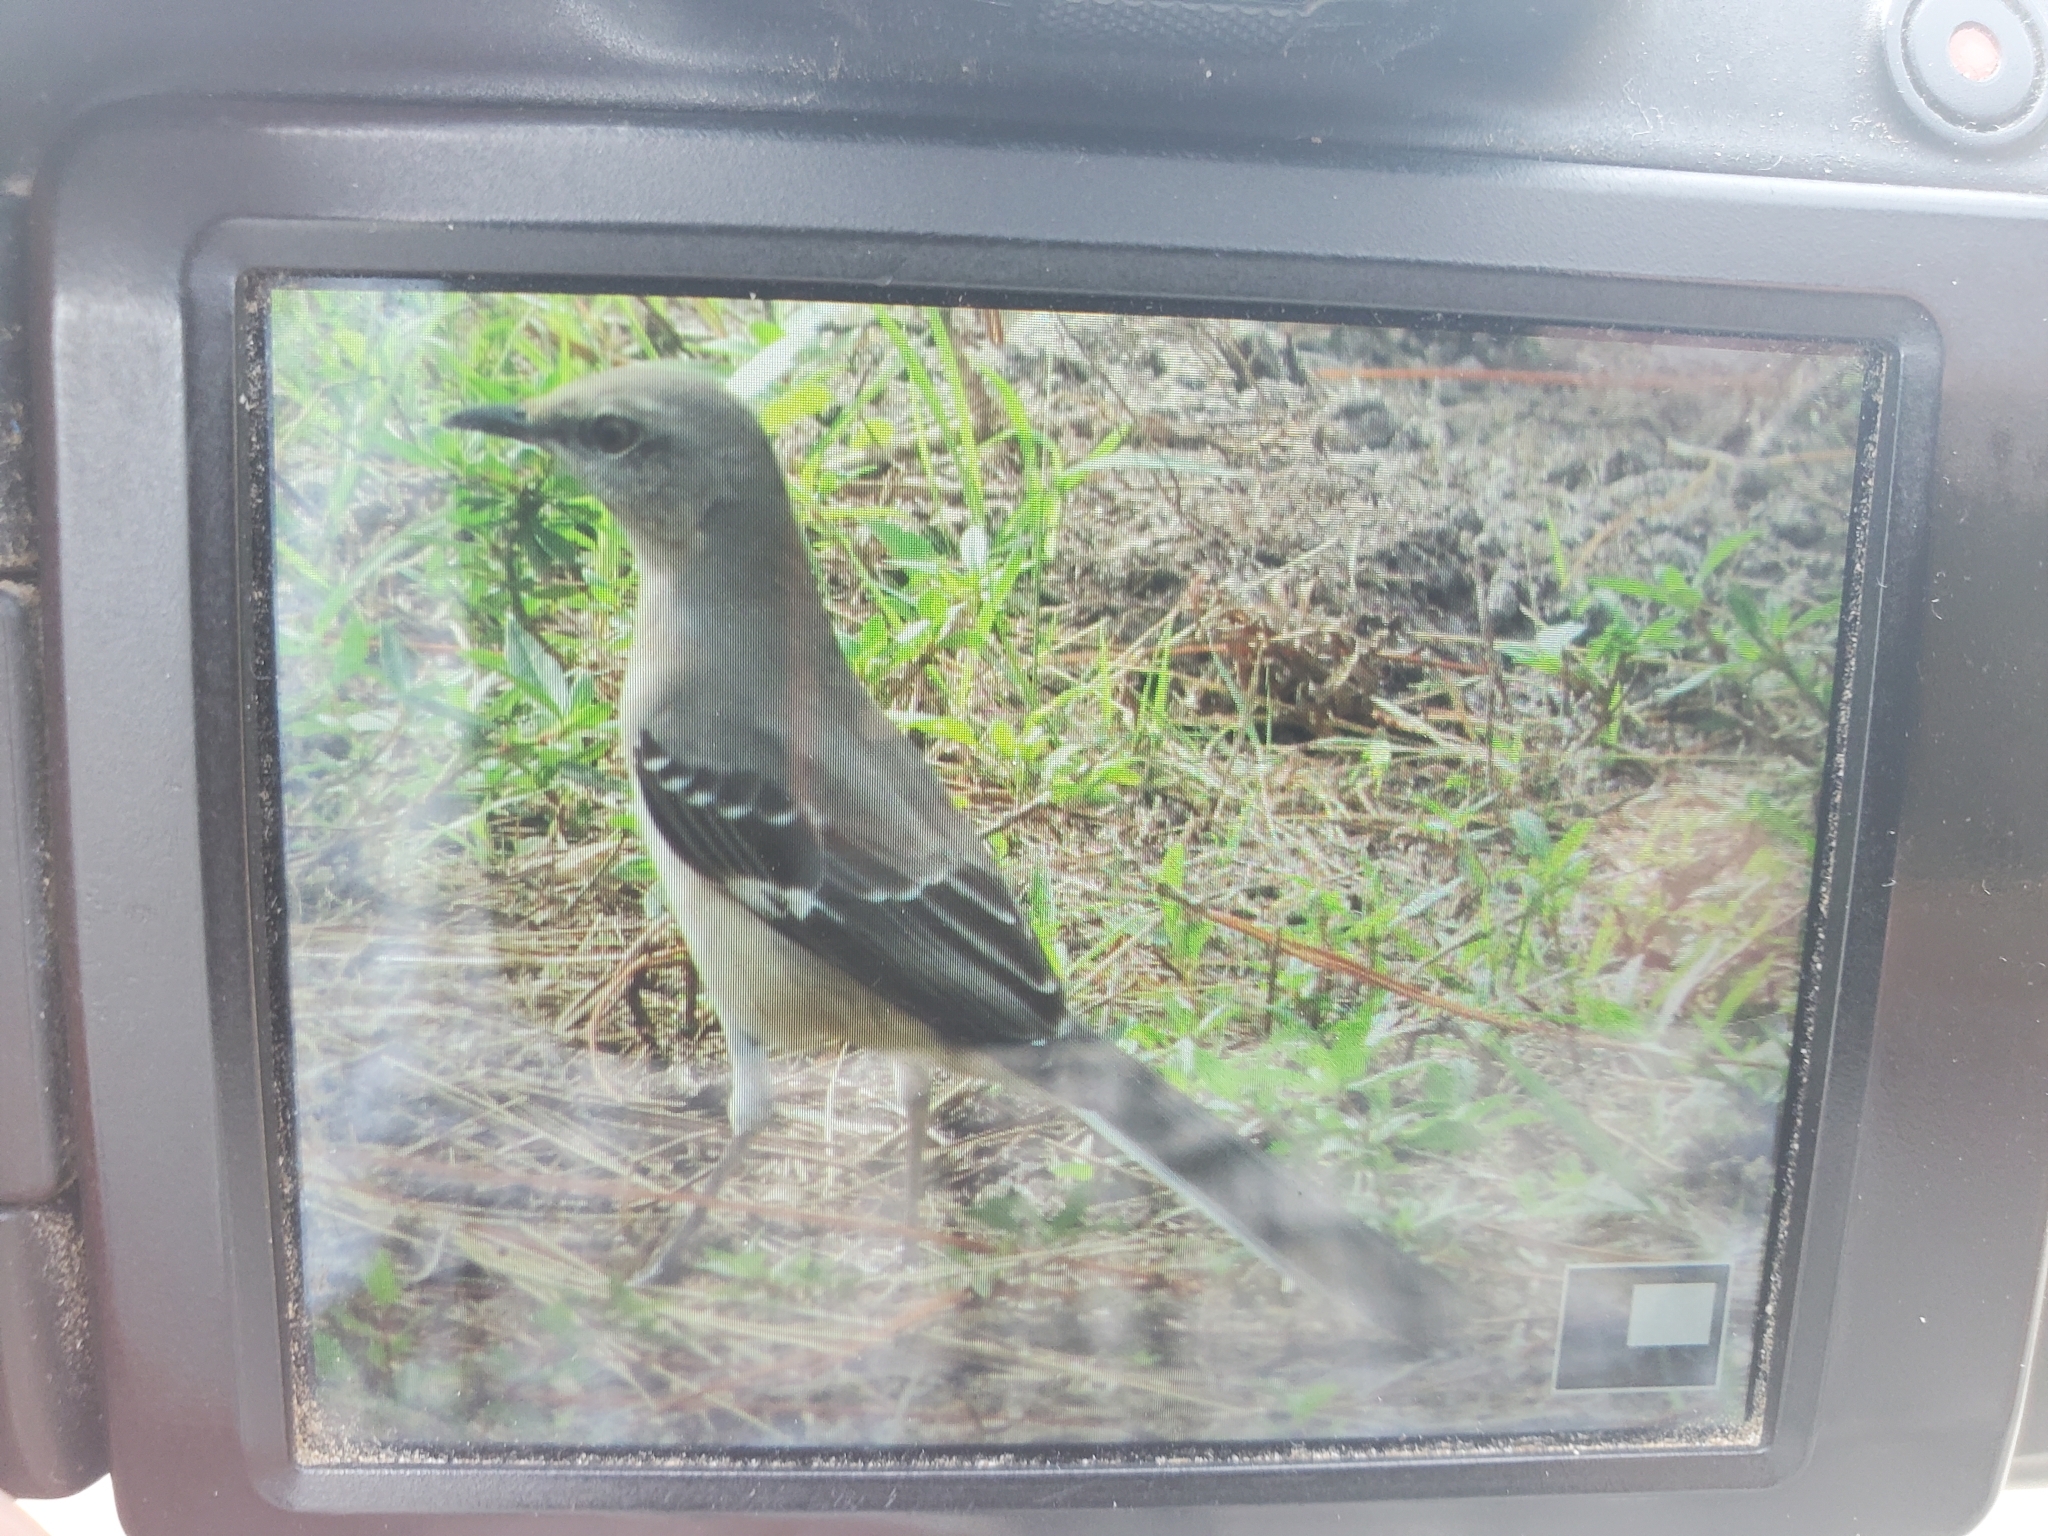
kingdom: Animalia
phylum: Chordata
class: Aves
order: Passeriformes
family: Mimidae
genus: Mimus
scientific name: Mimus polyglottos
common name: Northern mockingbird
